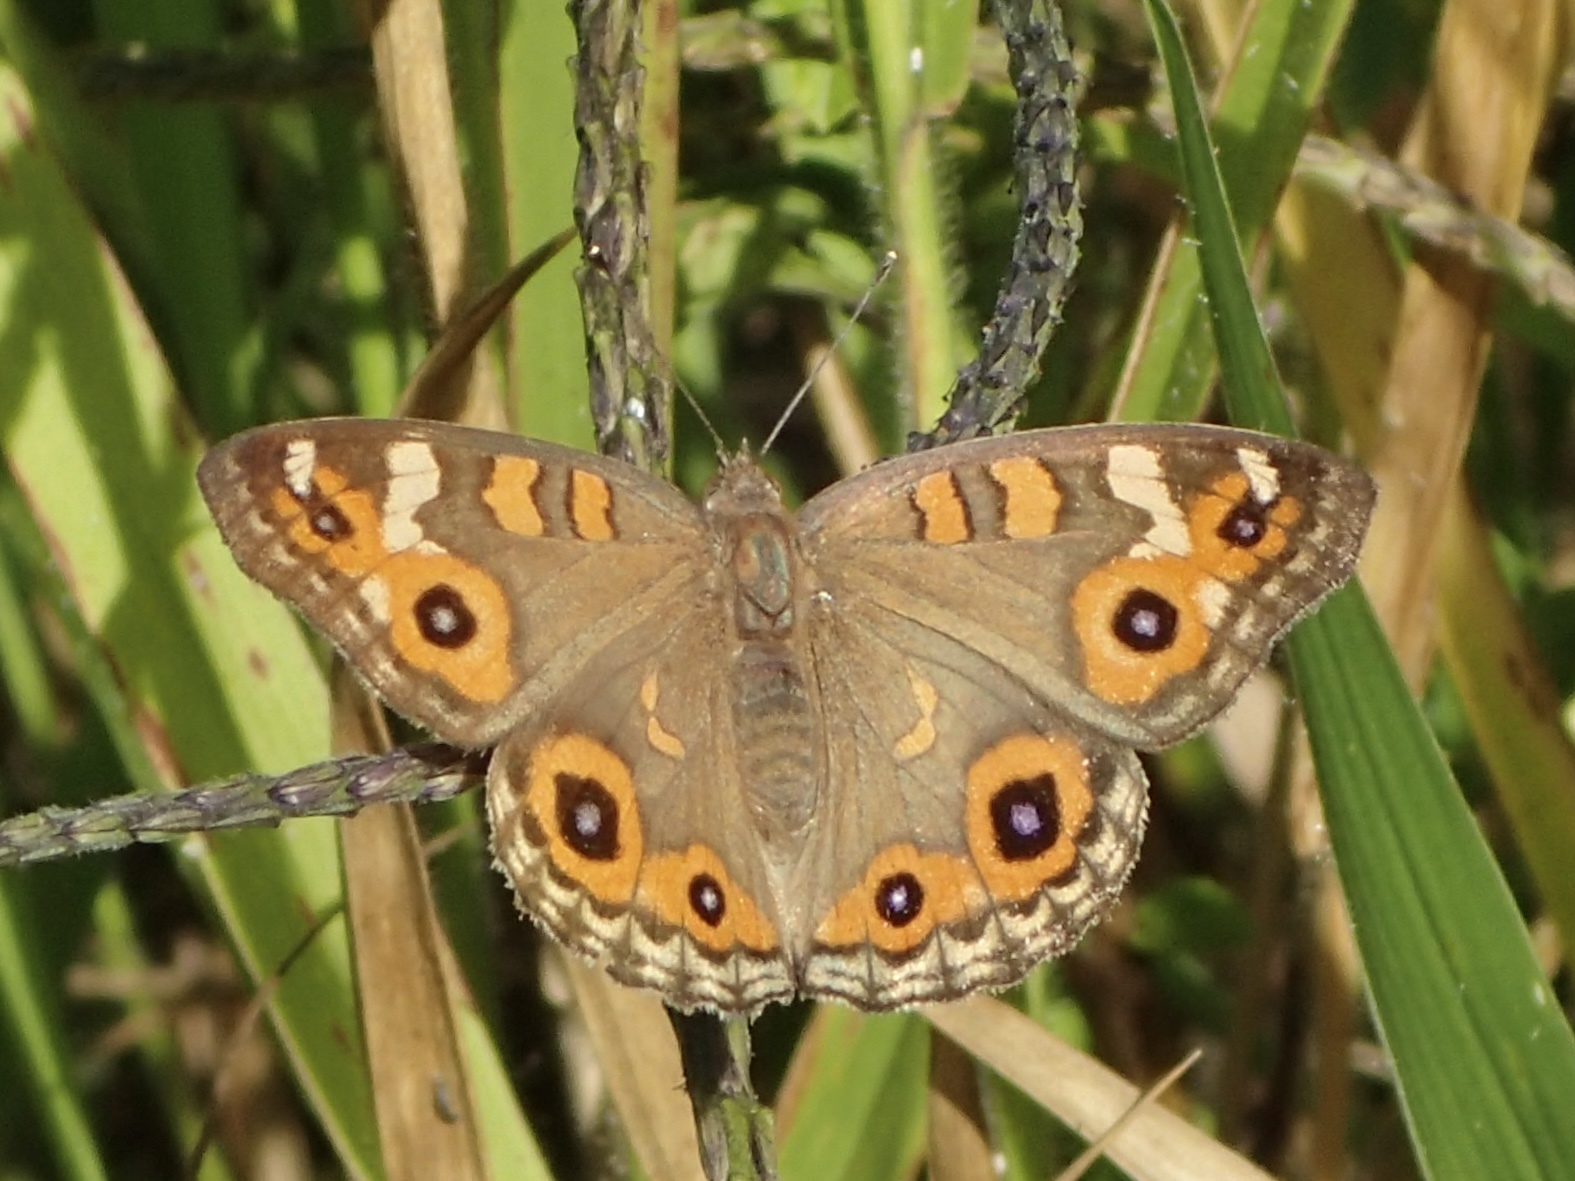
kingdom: Animalia
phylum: Arthropoda
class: Insecta
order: Lepidoptera
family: Nymphalidae
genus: Junonia
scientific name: Junonia villida
